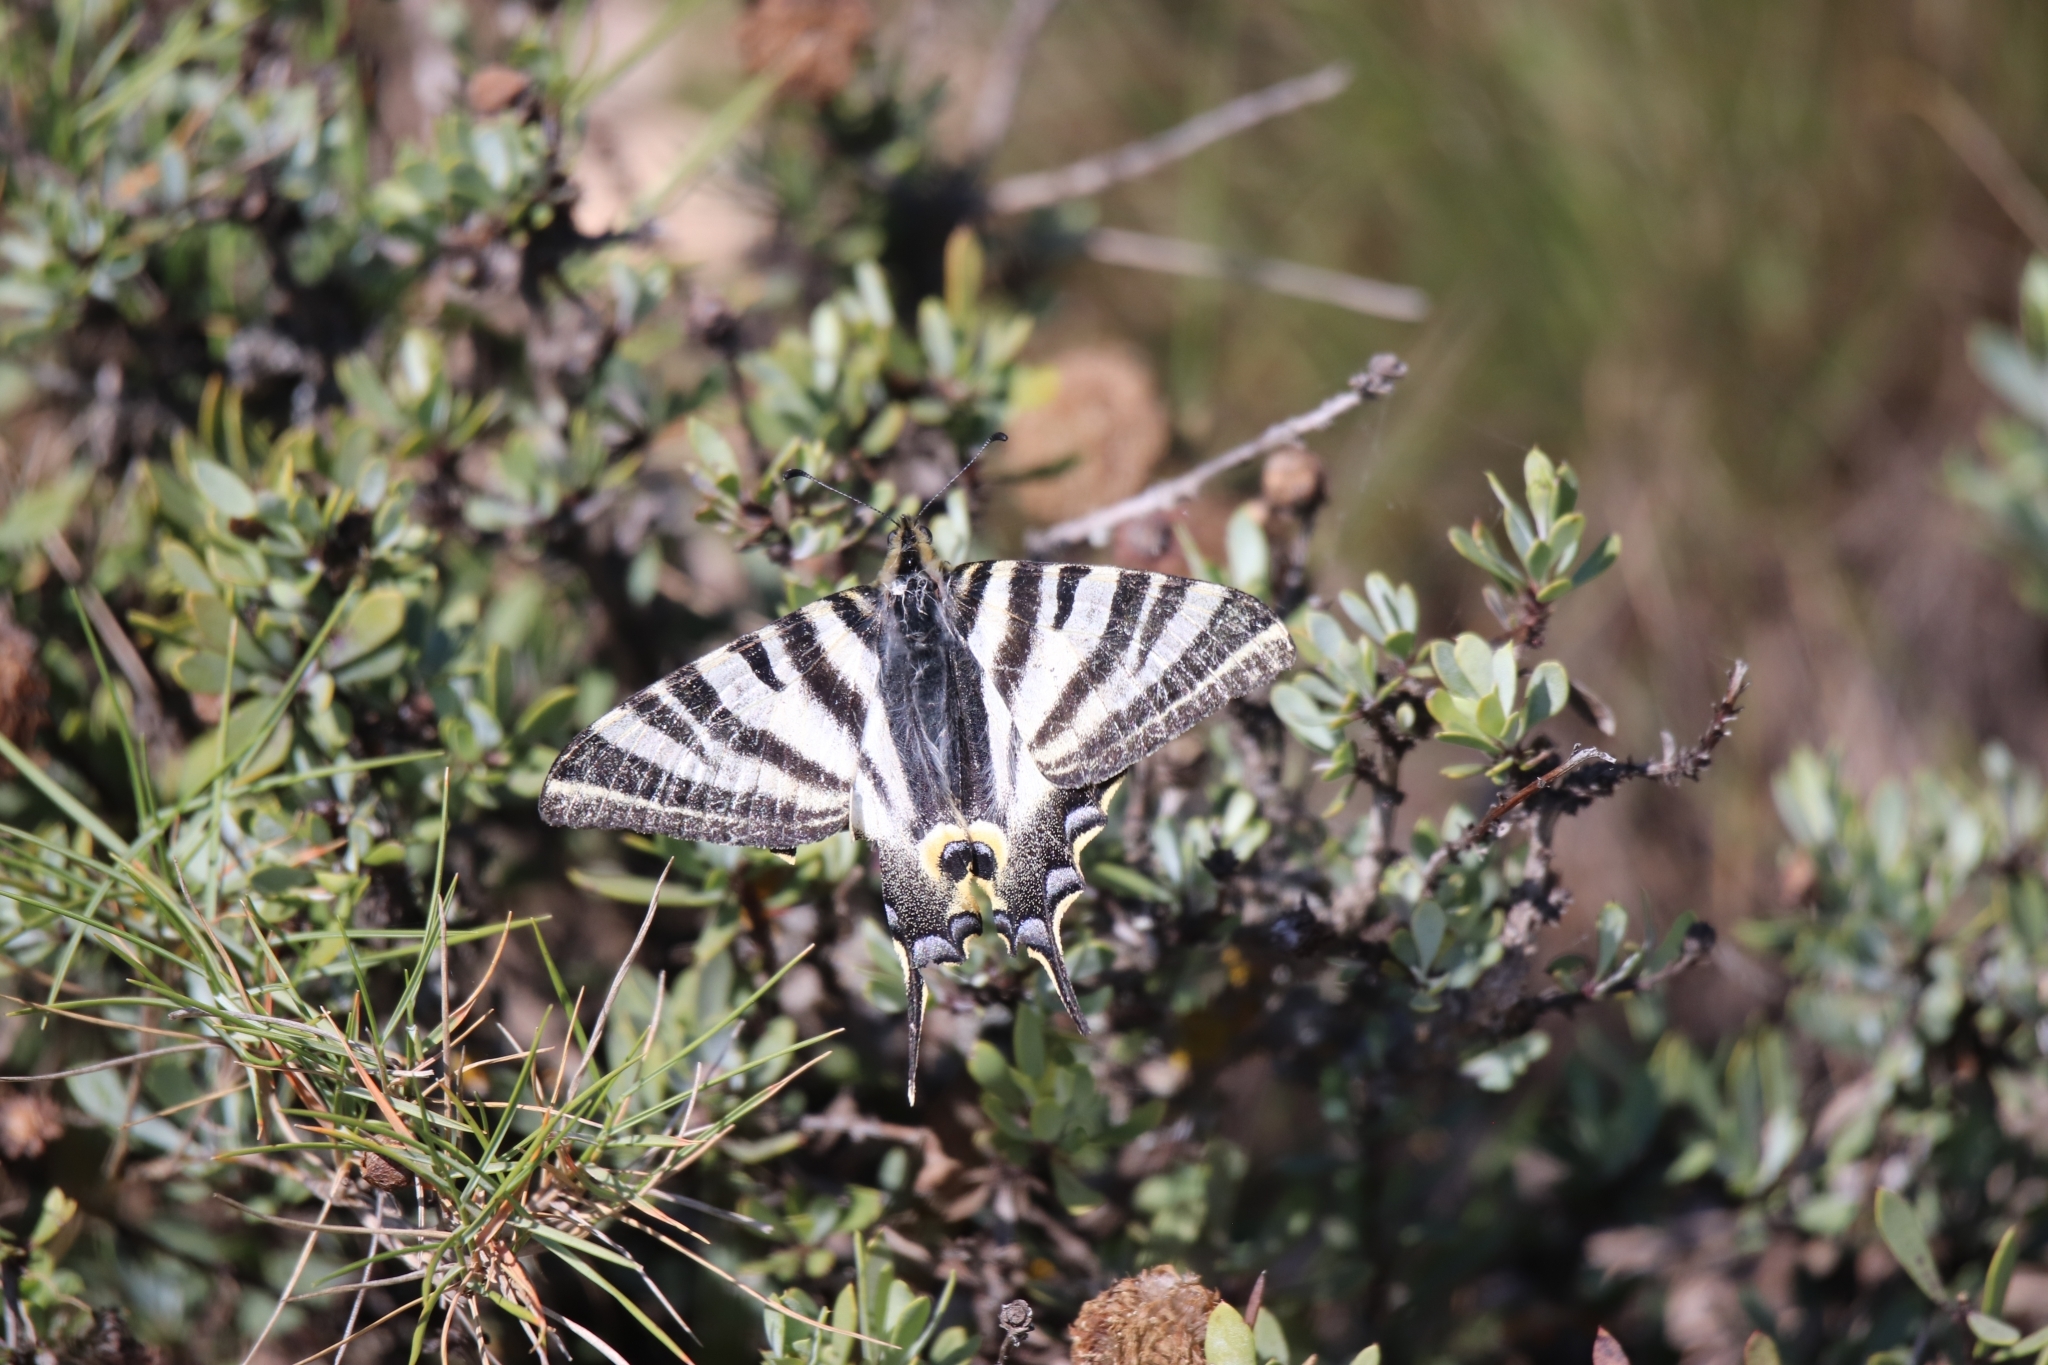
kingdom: Animalia
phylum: Arthropoda
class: Insecta
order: Lepidoptera
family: Papilionidae
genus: Iphiclides
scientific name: Iphiclides feisthamelii
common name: Iberian scarce swallowtail
